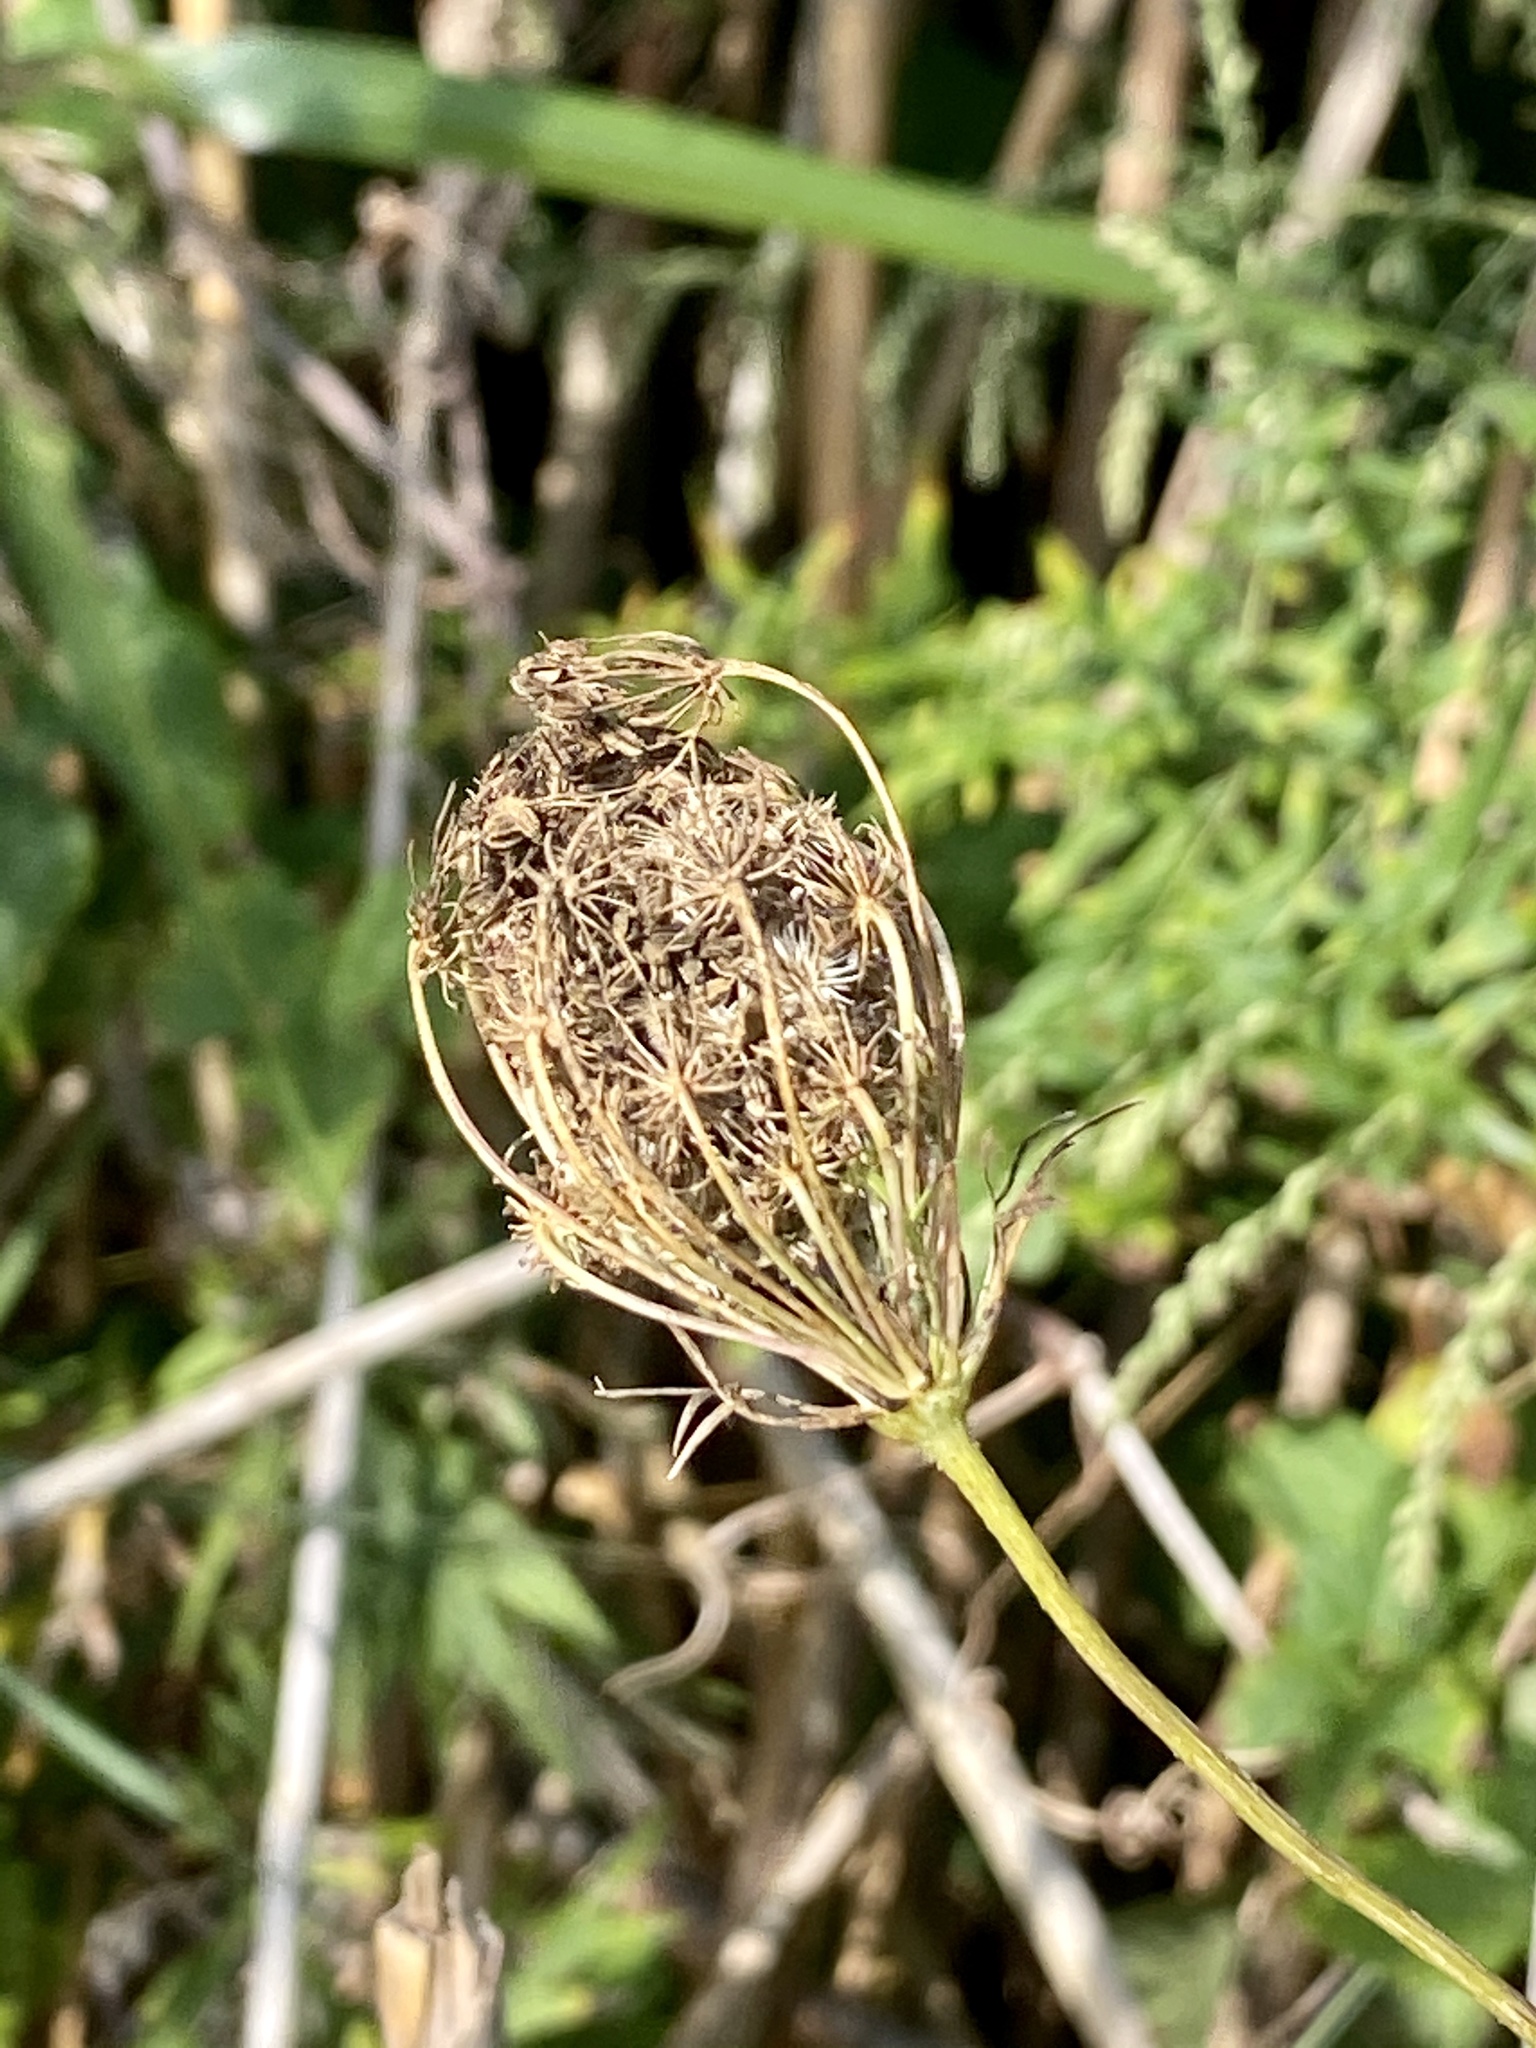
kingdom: Plantae
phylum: Tracheophyta
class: Magnoliopsida
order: Apiales
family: Apiaceae
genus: Daucus
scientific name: Daucus carota
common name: Wild carrot
